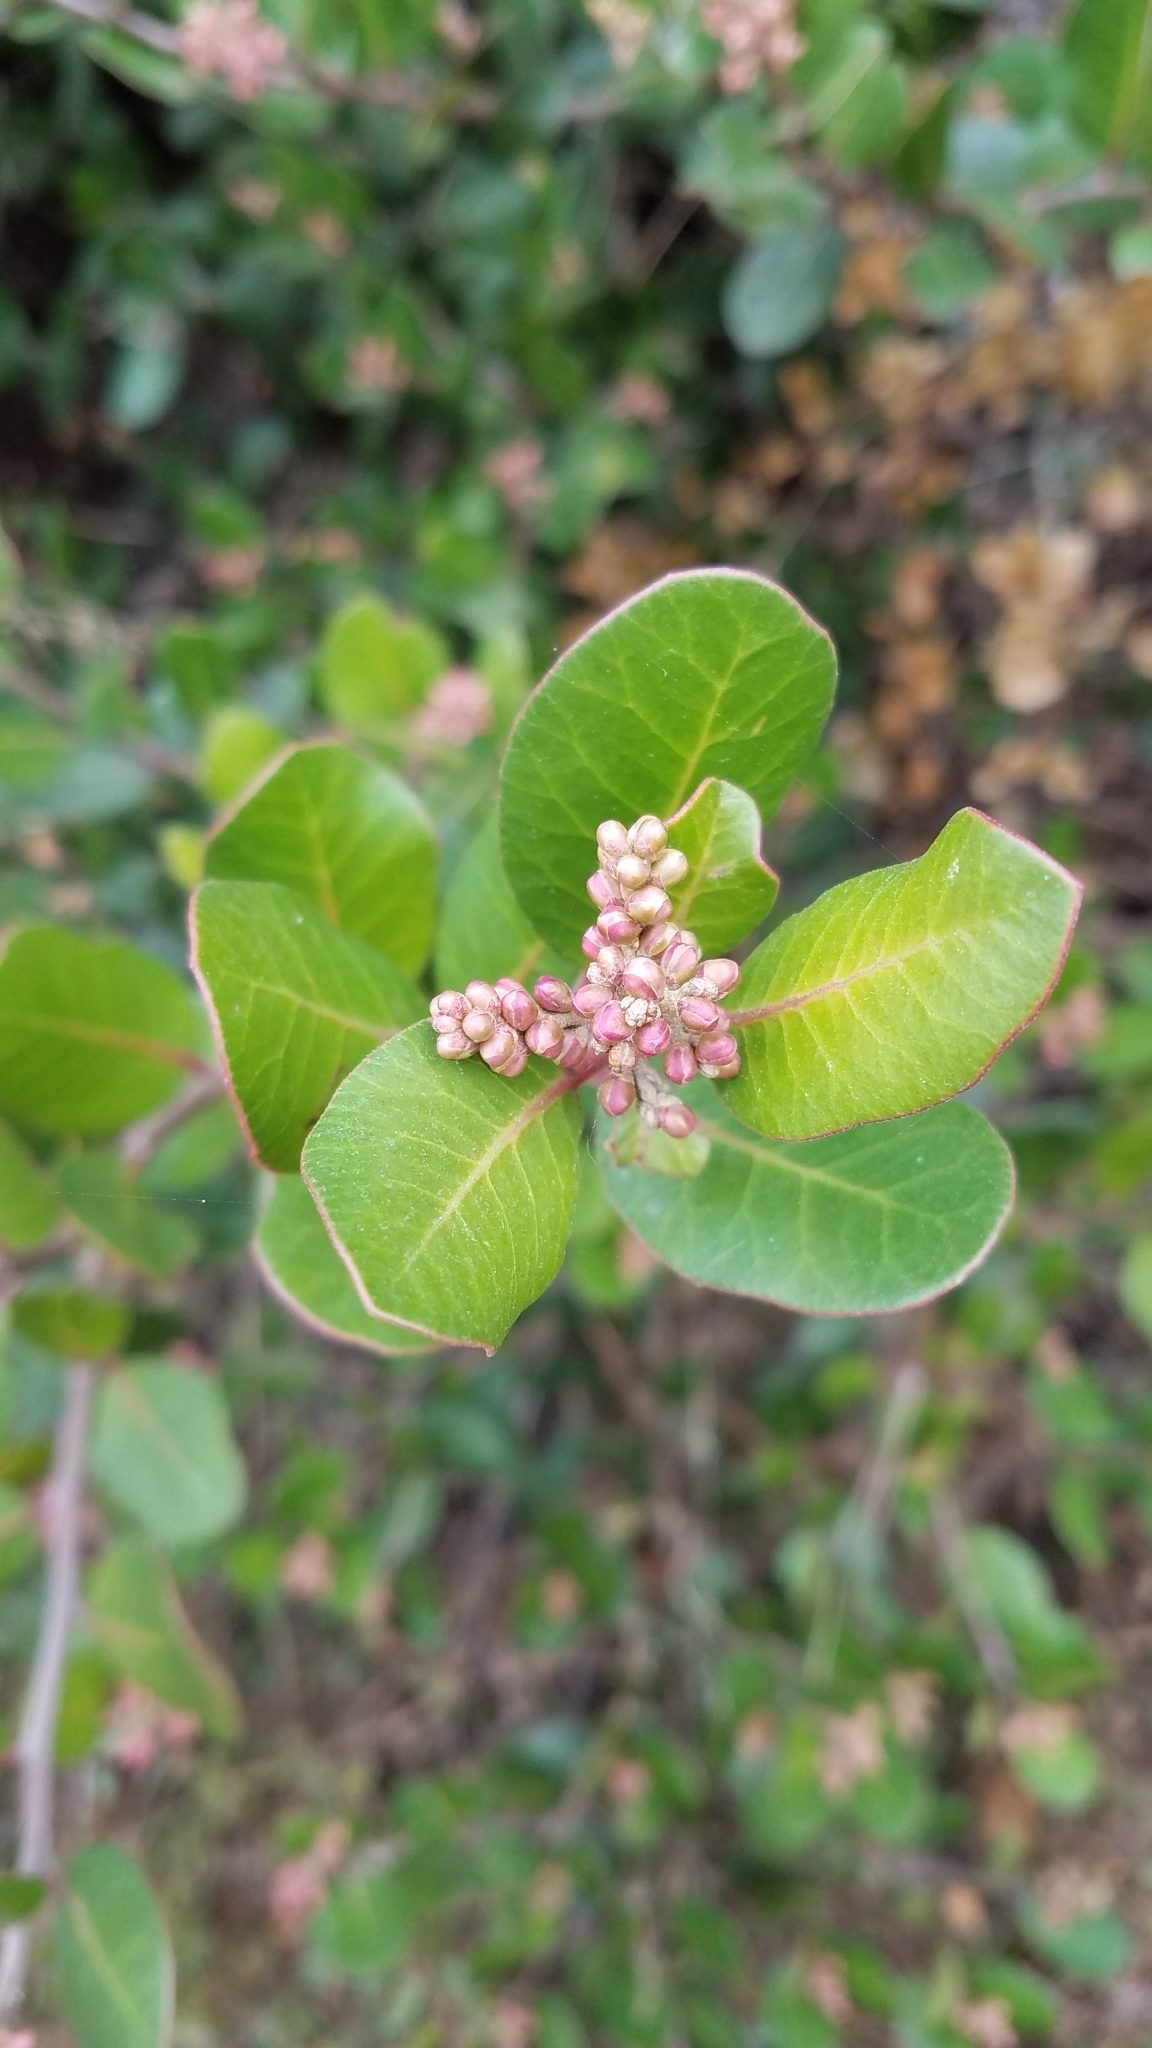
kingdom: Plantae
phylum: Tracheophyta
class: Magnoliopsida
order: Sapindales
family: Anacardiaceae
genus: Rhus
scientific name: Rhus integrifolia
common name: Lemonade sumac
